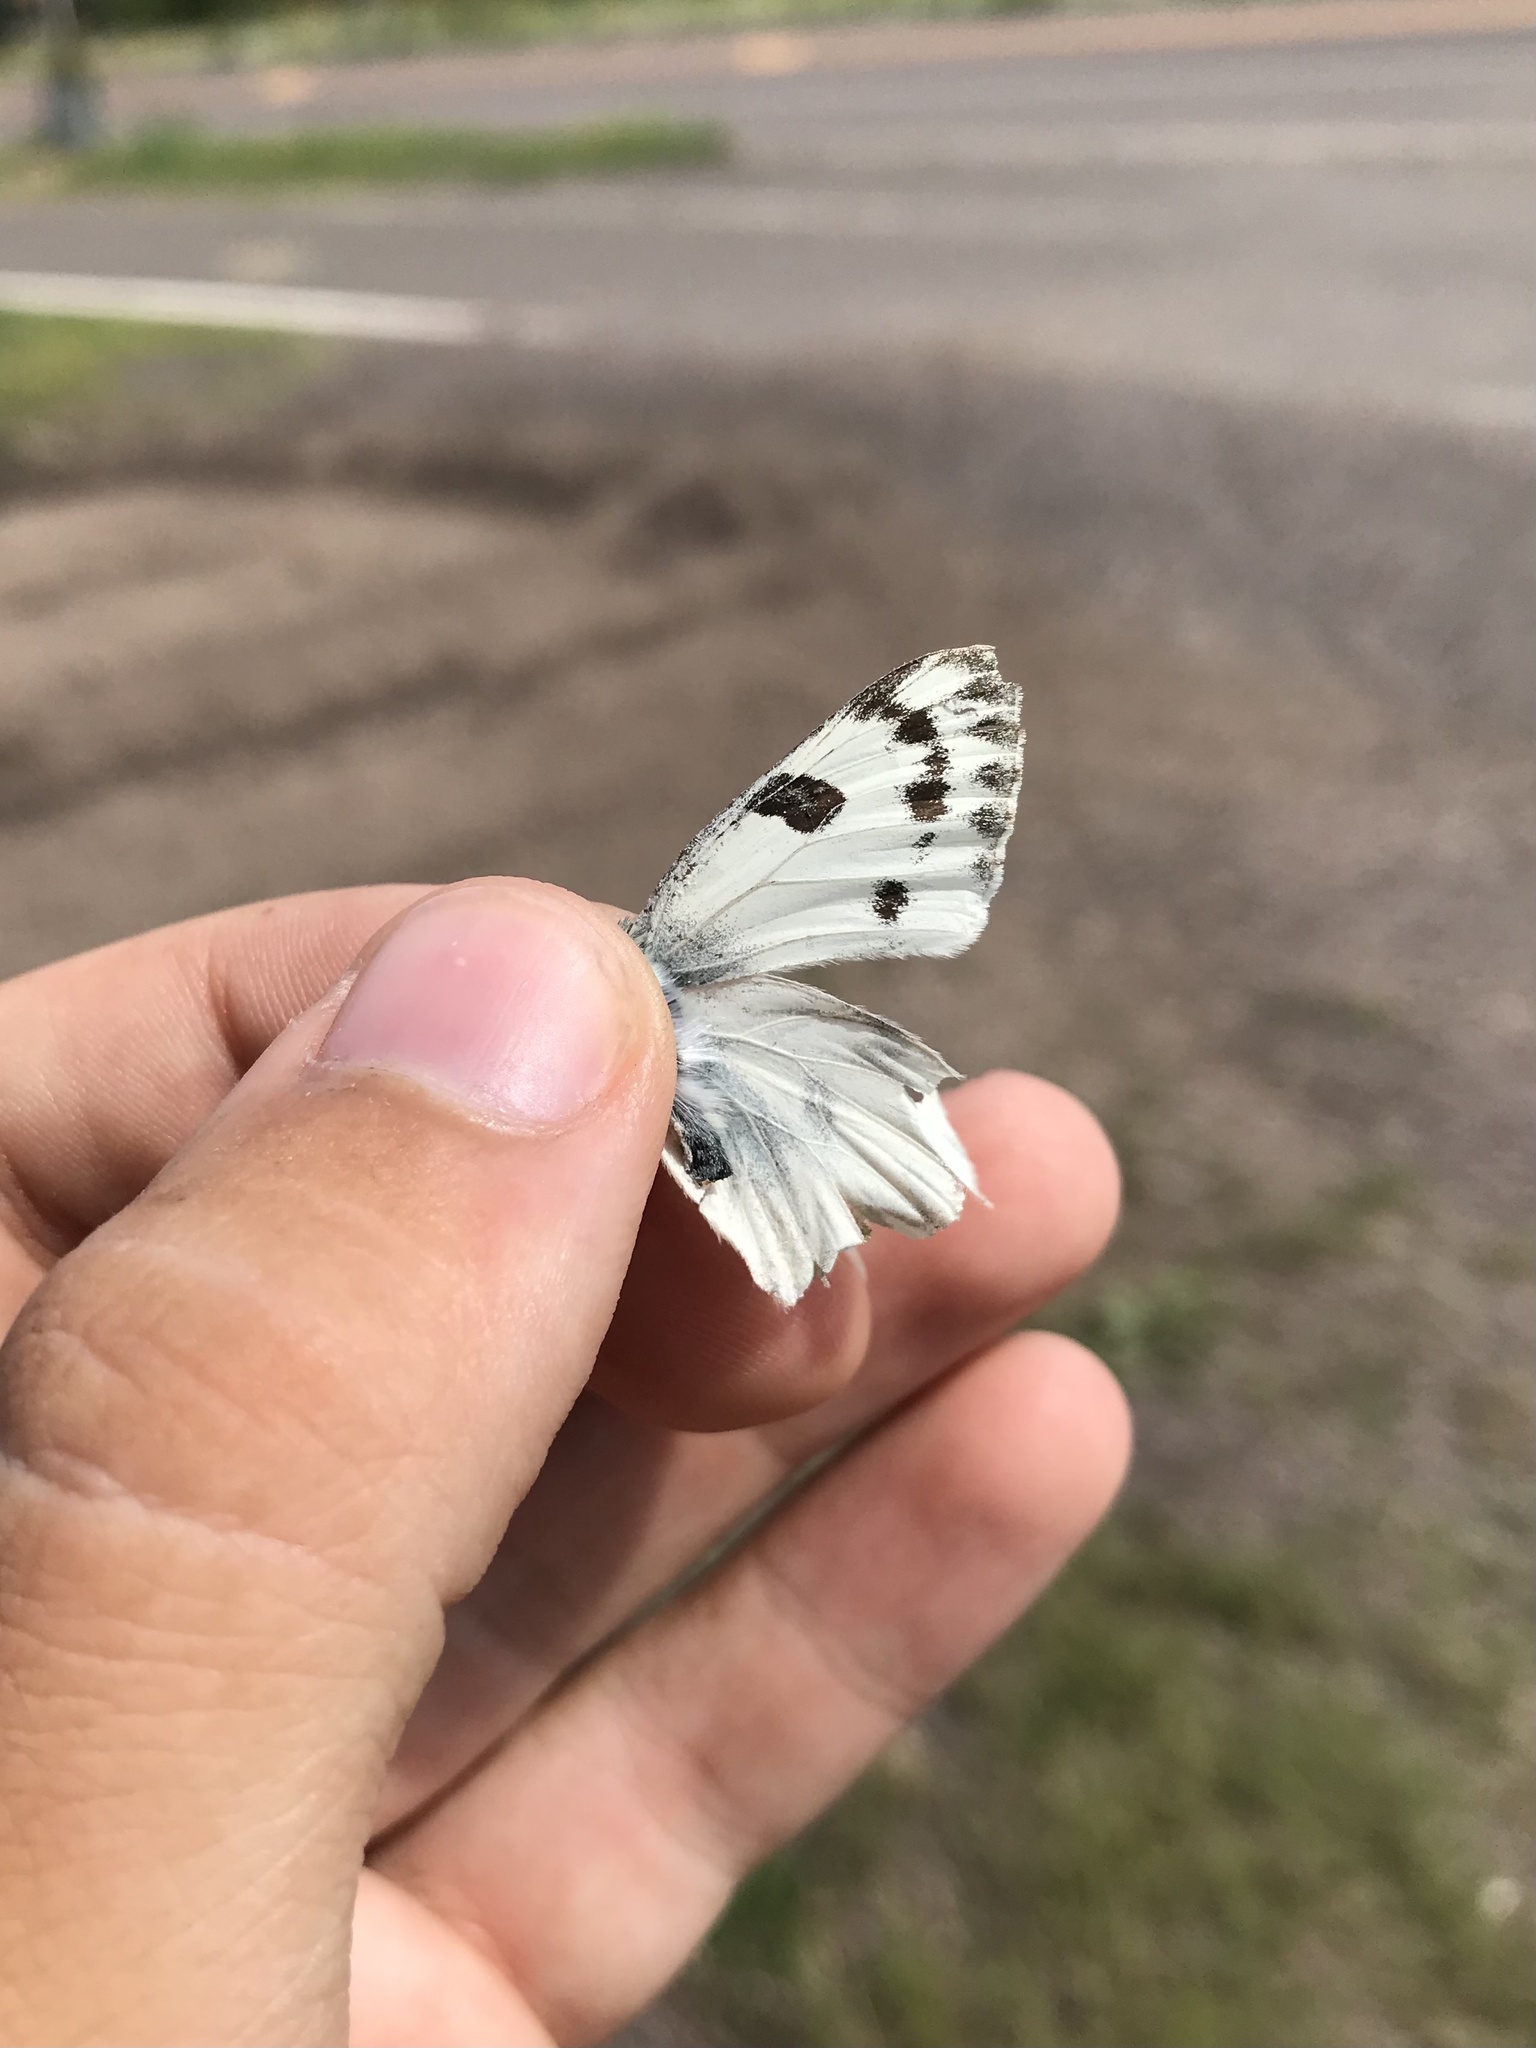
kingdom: Animalia
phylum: Arthropoda
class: Insecta
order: Lepidoptera
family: Pieridae
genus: Pontia
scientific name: Pontia occidentalis
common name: Western white
